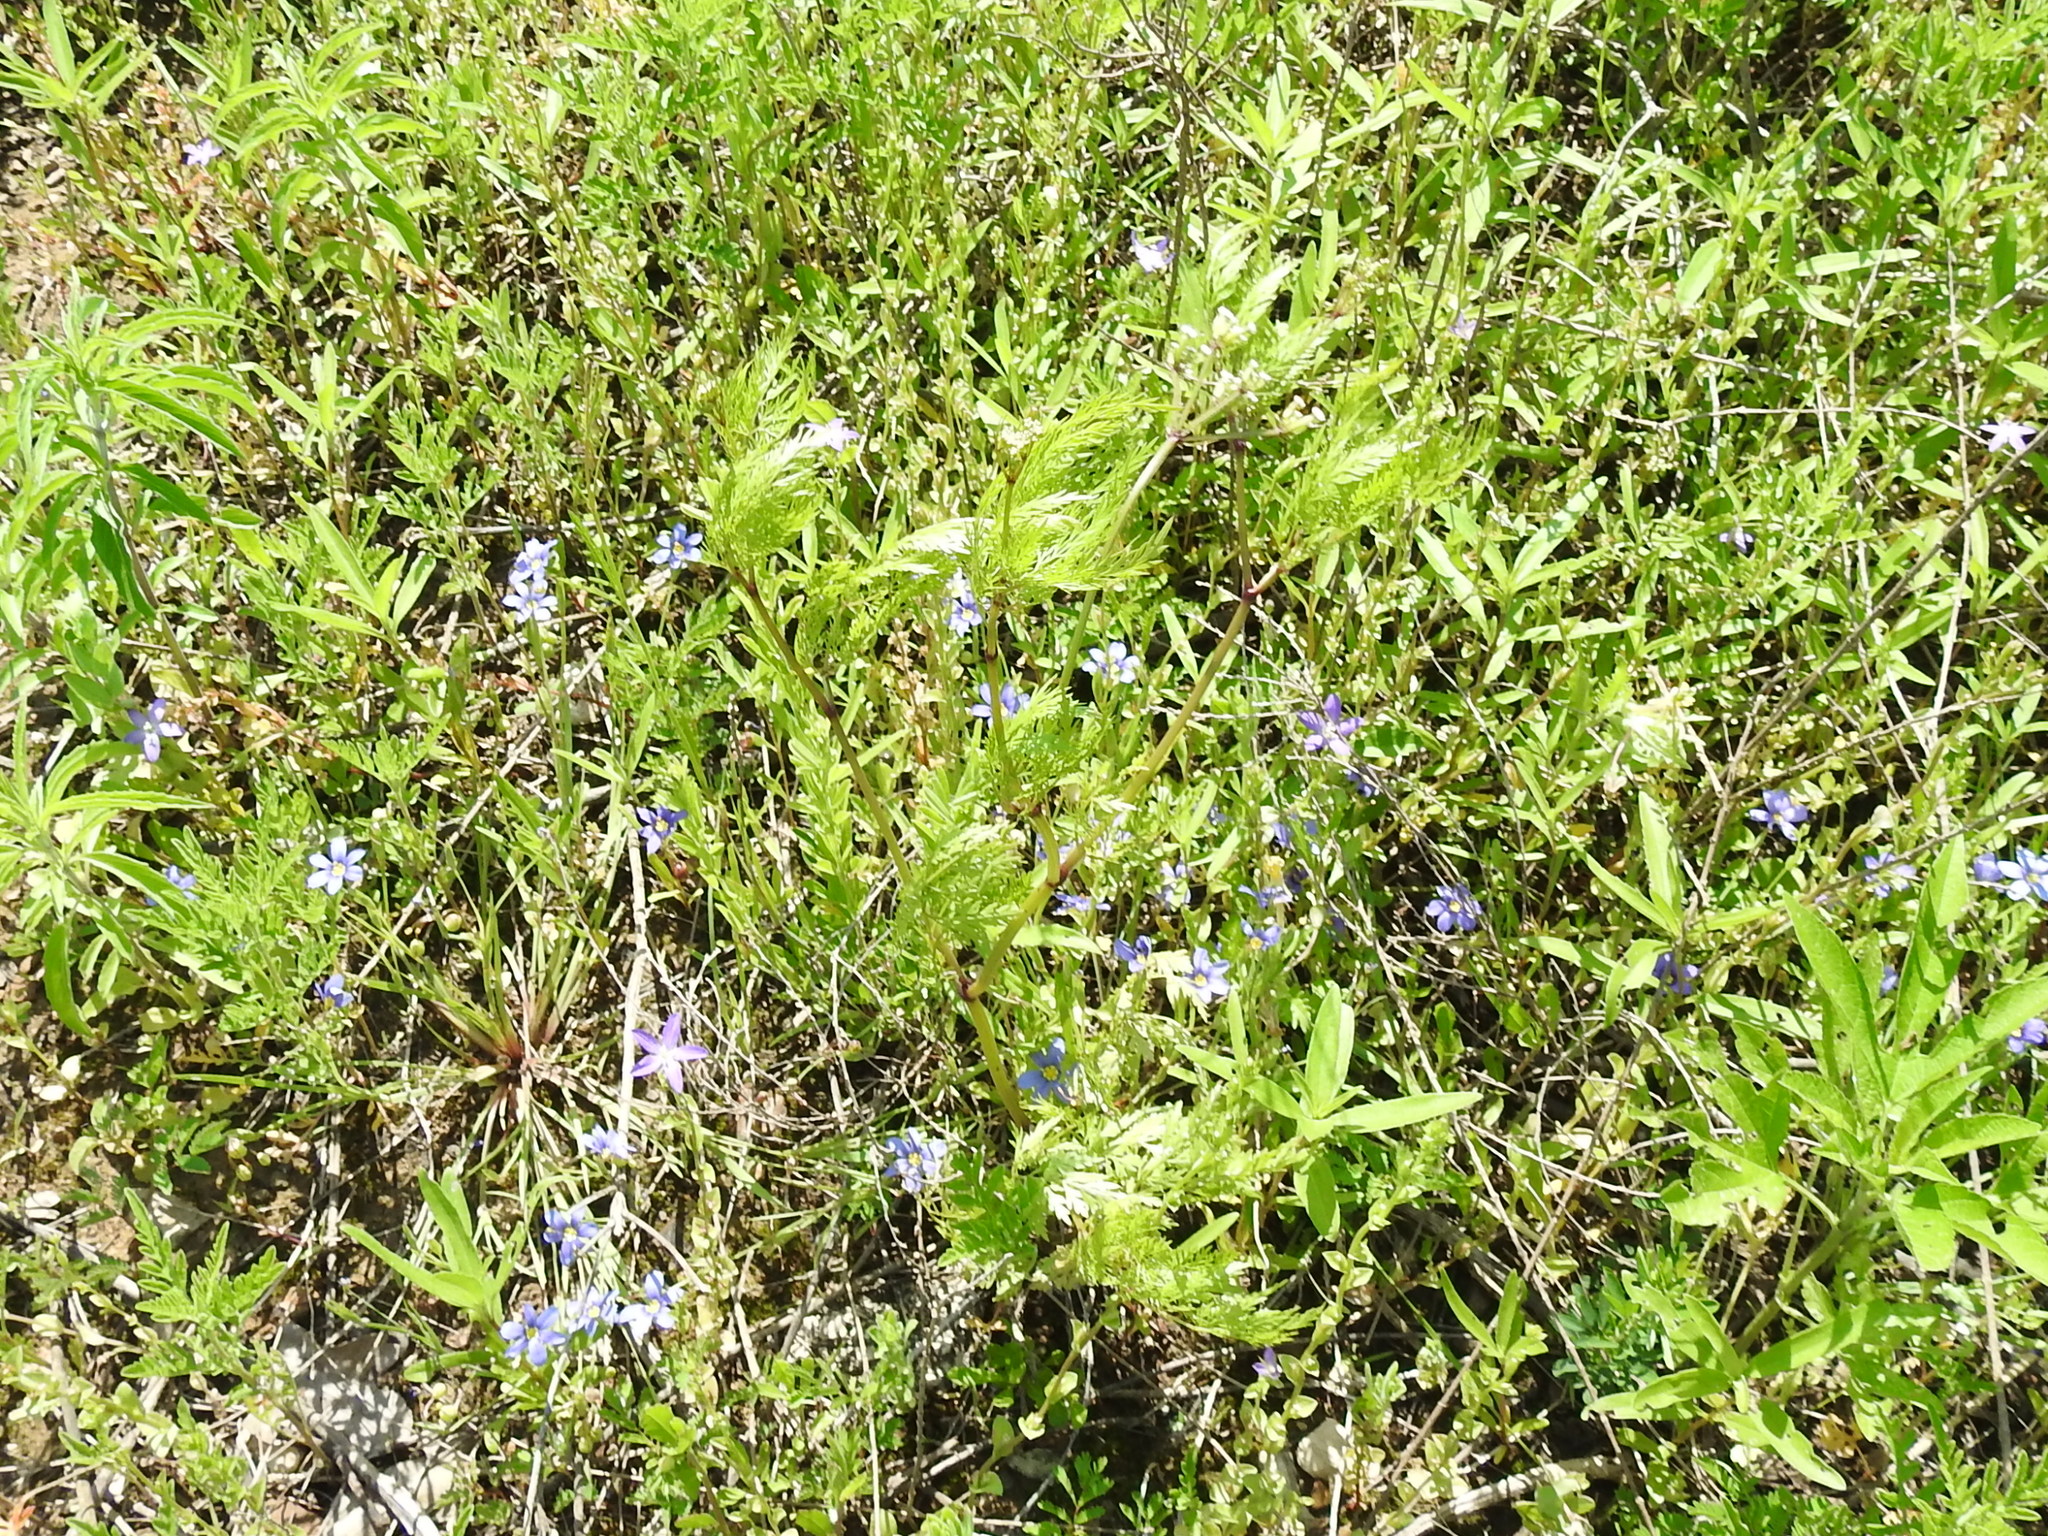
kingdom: Plantae
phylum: Tracheophyta
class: Magnoliopsida
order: Apiales
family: Apiaceae
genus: Trepocarpus
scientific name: Trepocarpus aethusae
